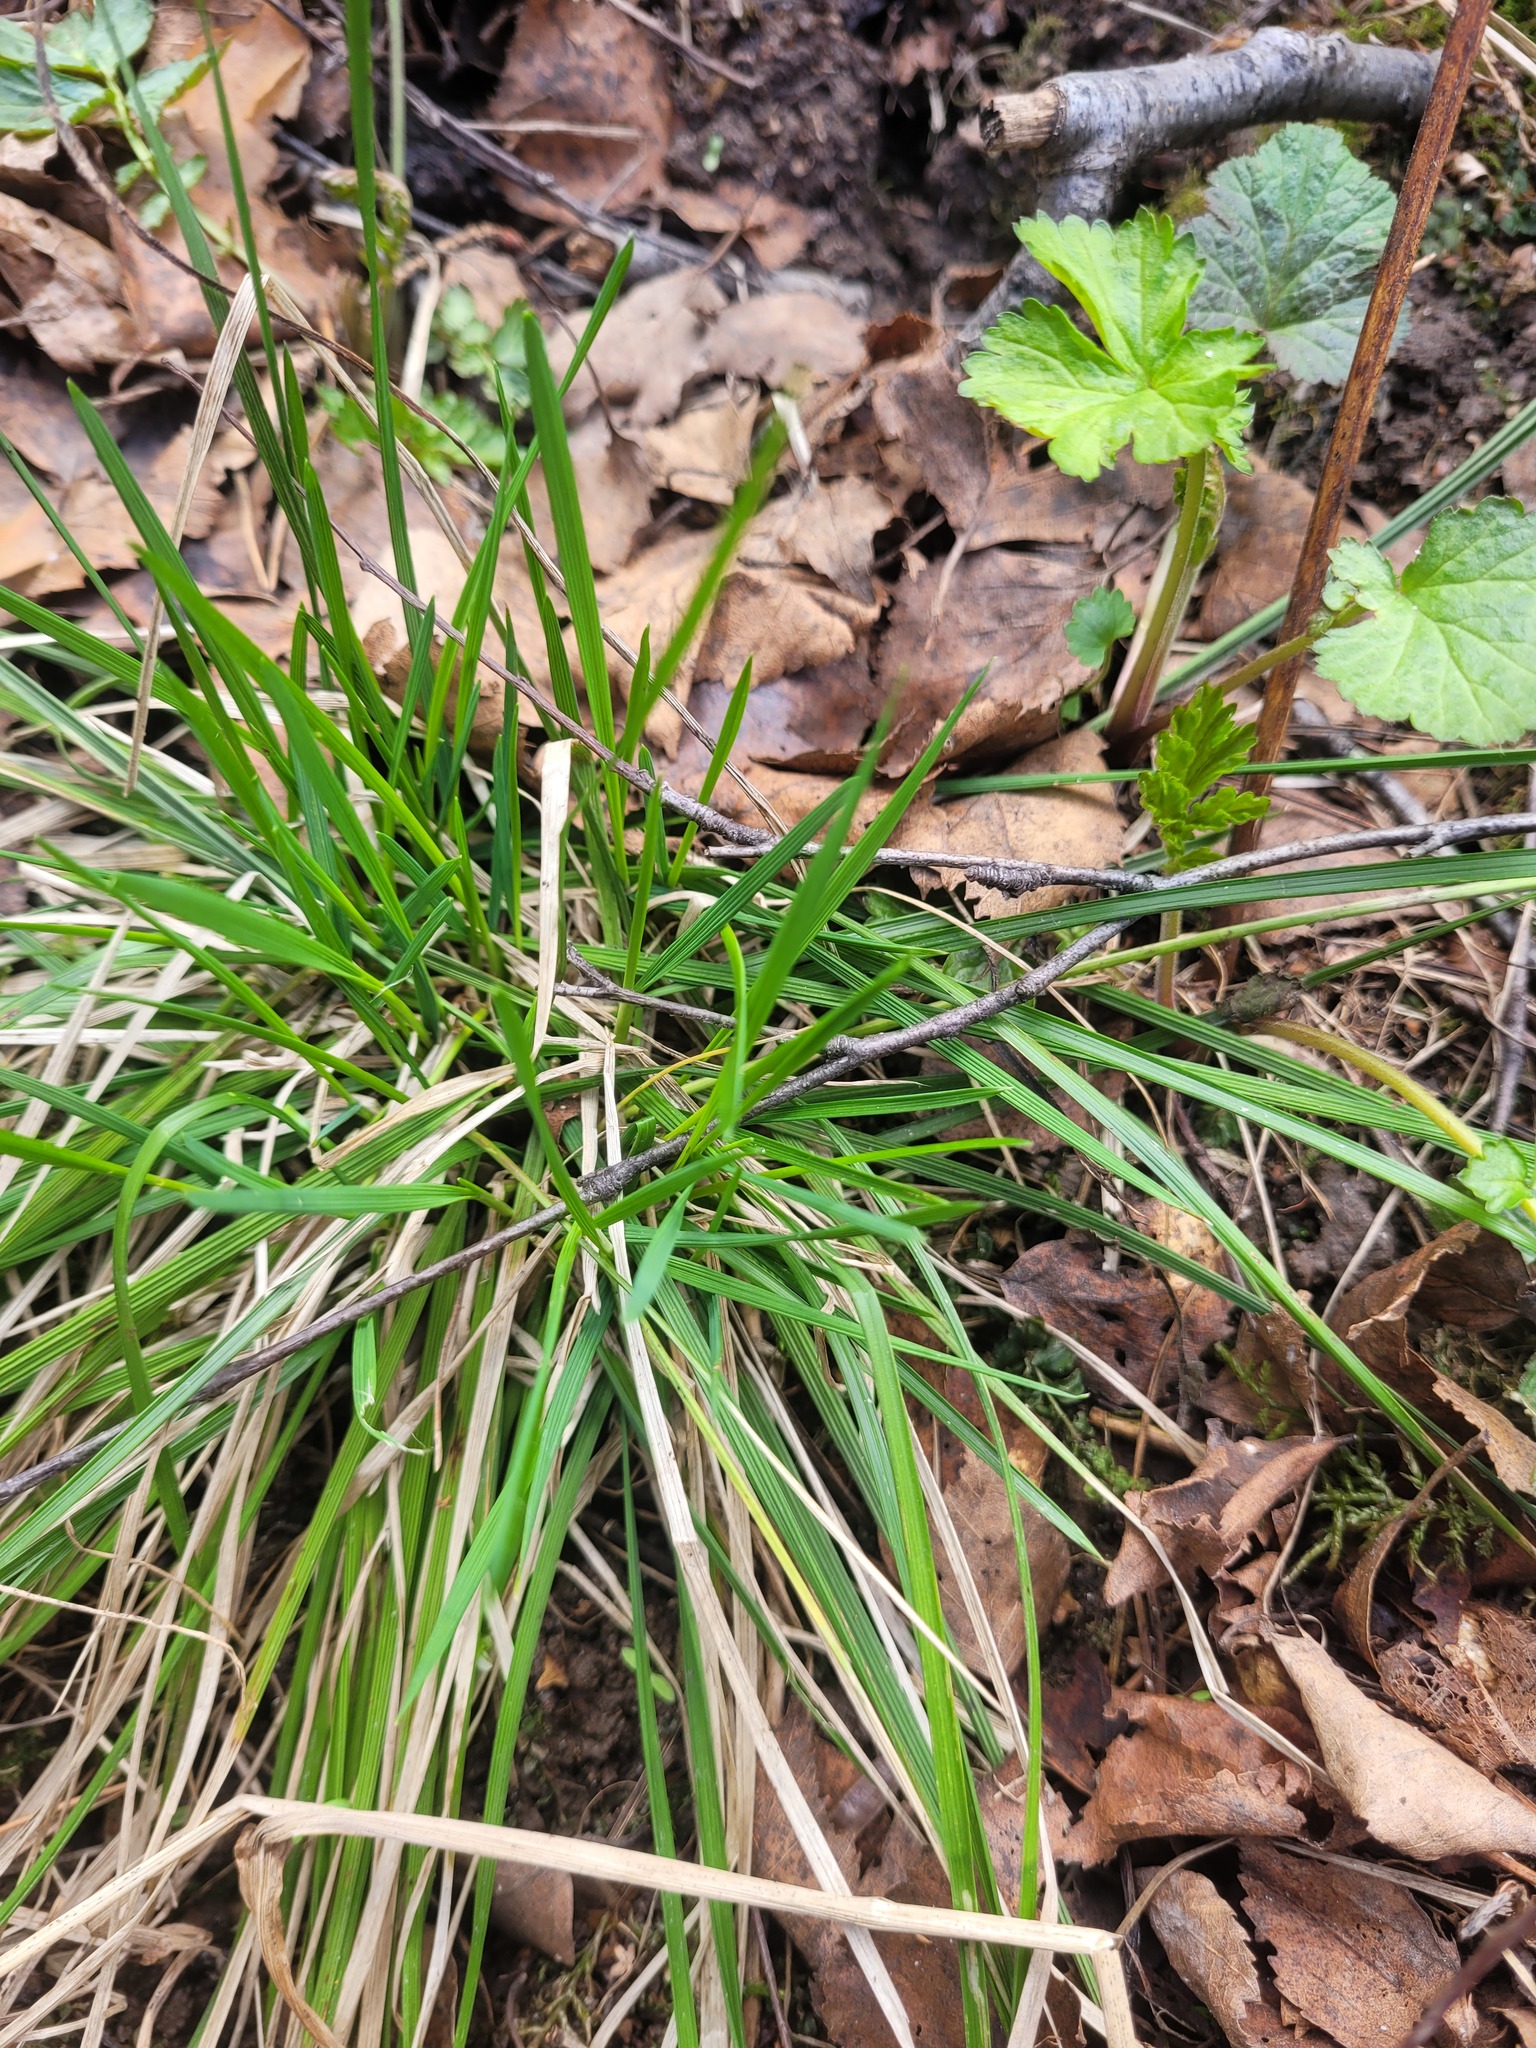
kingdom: Plantae
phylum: Tracheophyta
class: Liliopsida
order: Poales
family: Poaceae
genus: Deschampsia
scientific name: Deschampsia cespitosa
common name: Tufted hair-grass
